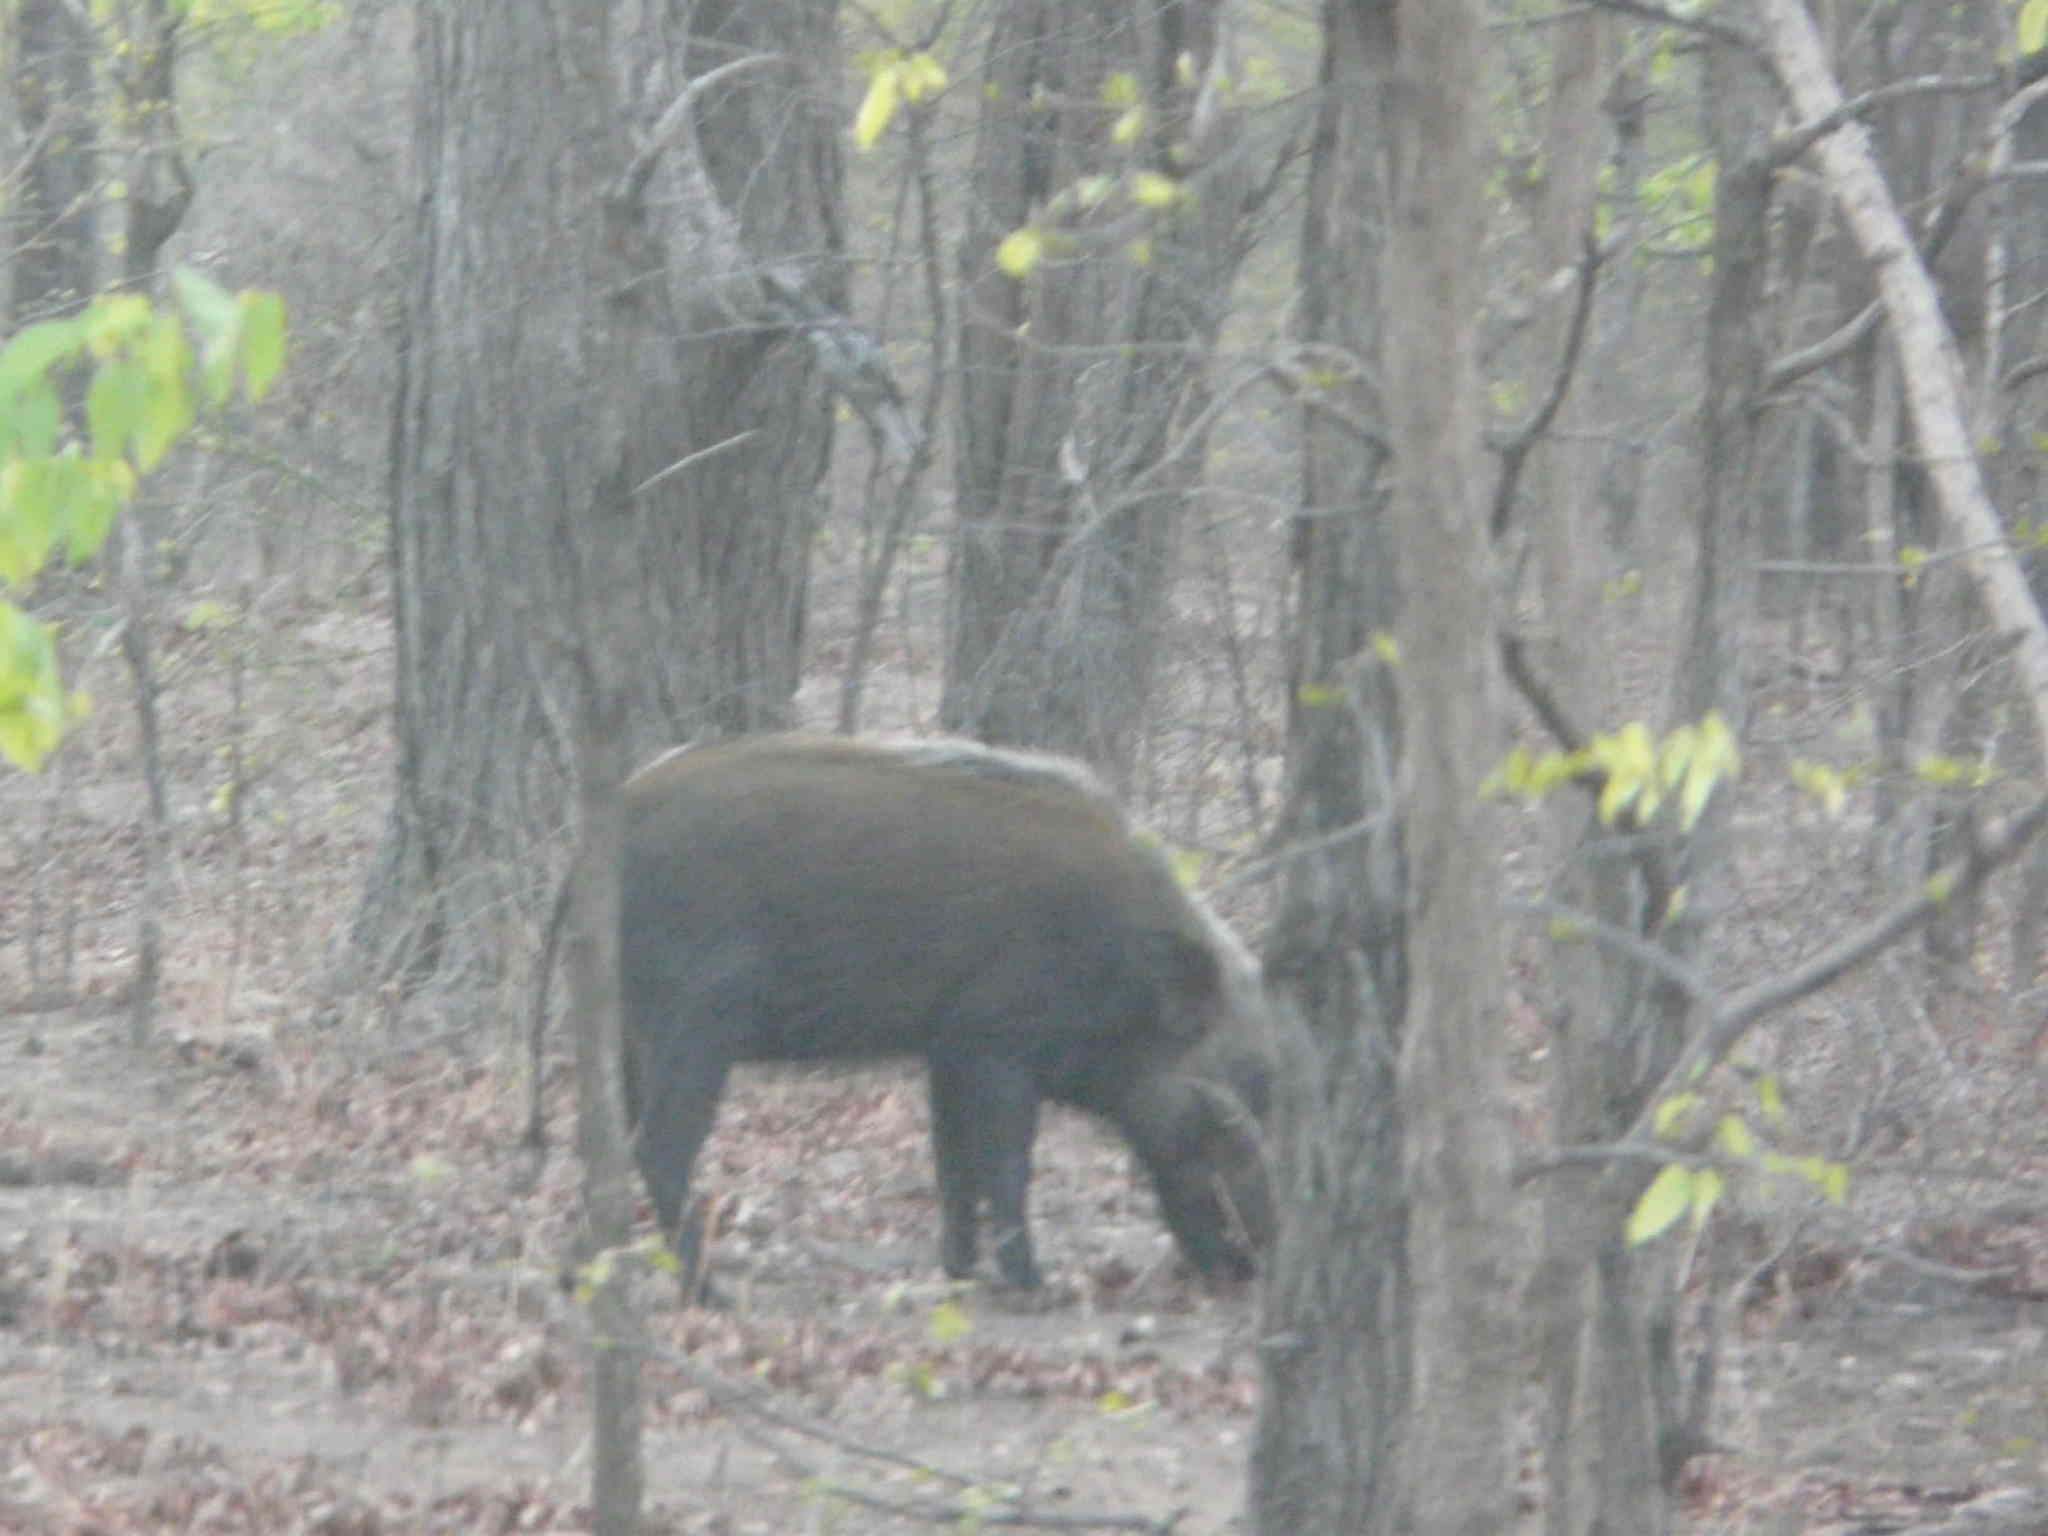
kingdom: Animalia
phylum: Chordata
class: Mammalia
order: Artiodactyla
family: Suidae
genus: Potamochoerus
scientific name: Potamochoerus larvatus
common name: Bushpig
